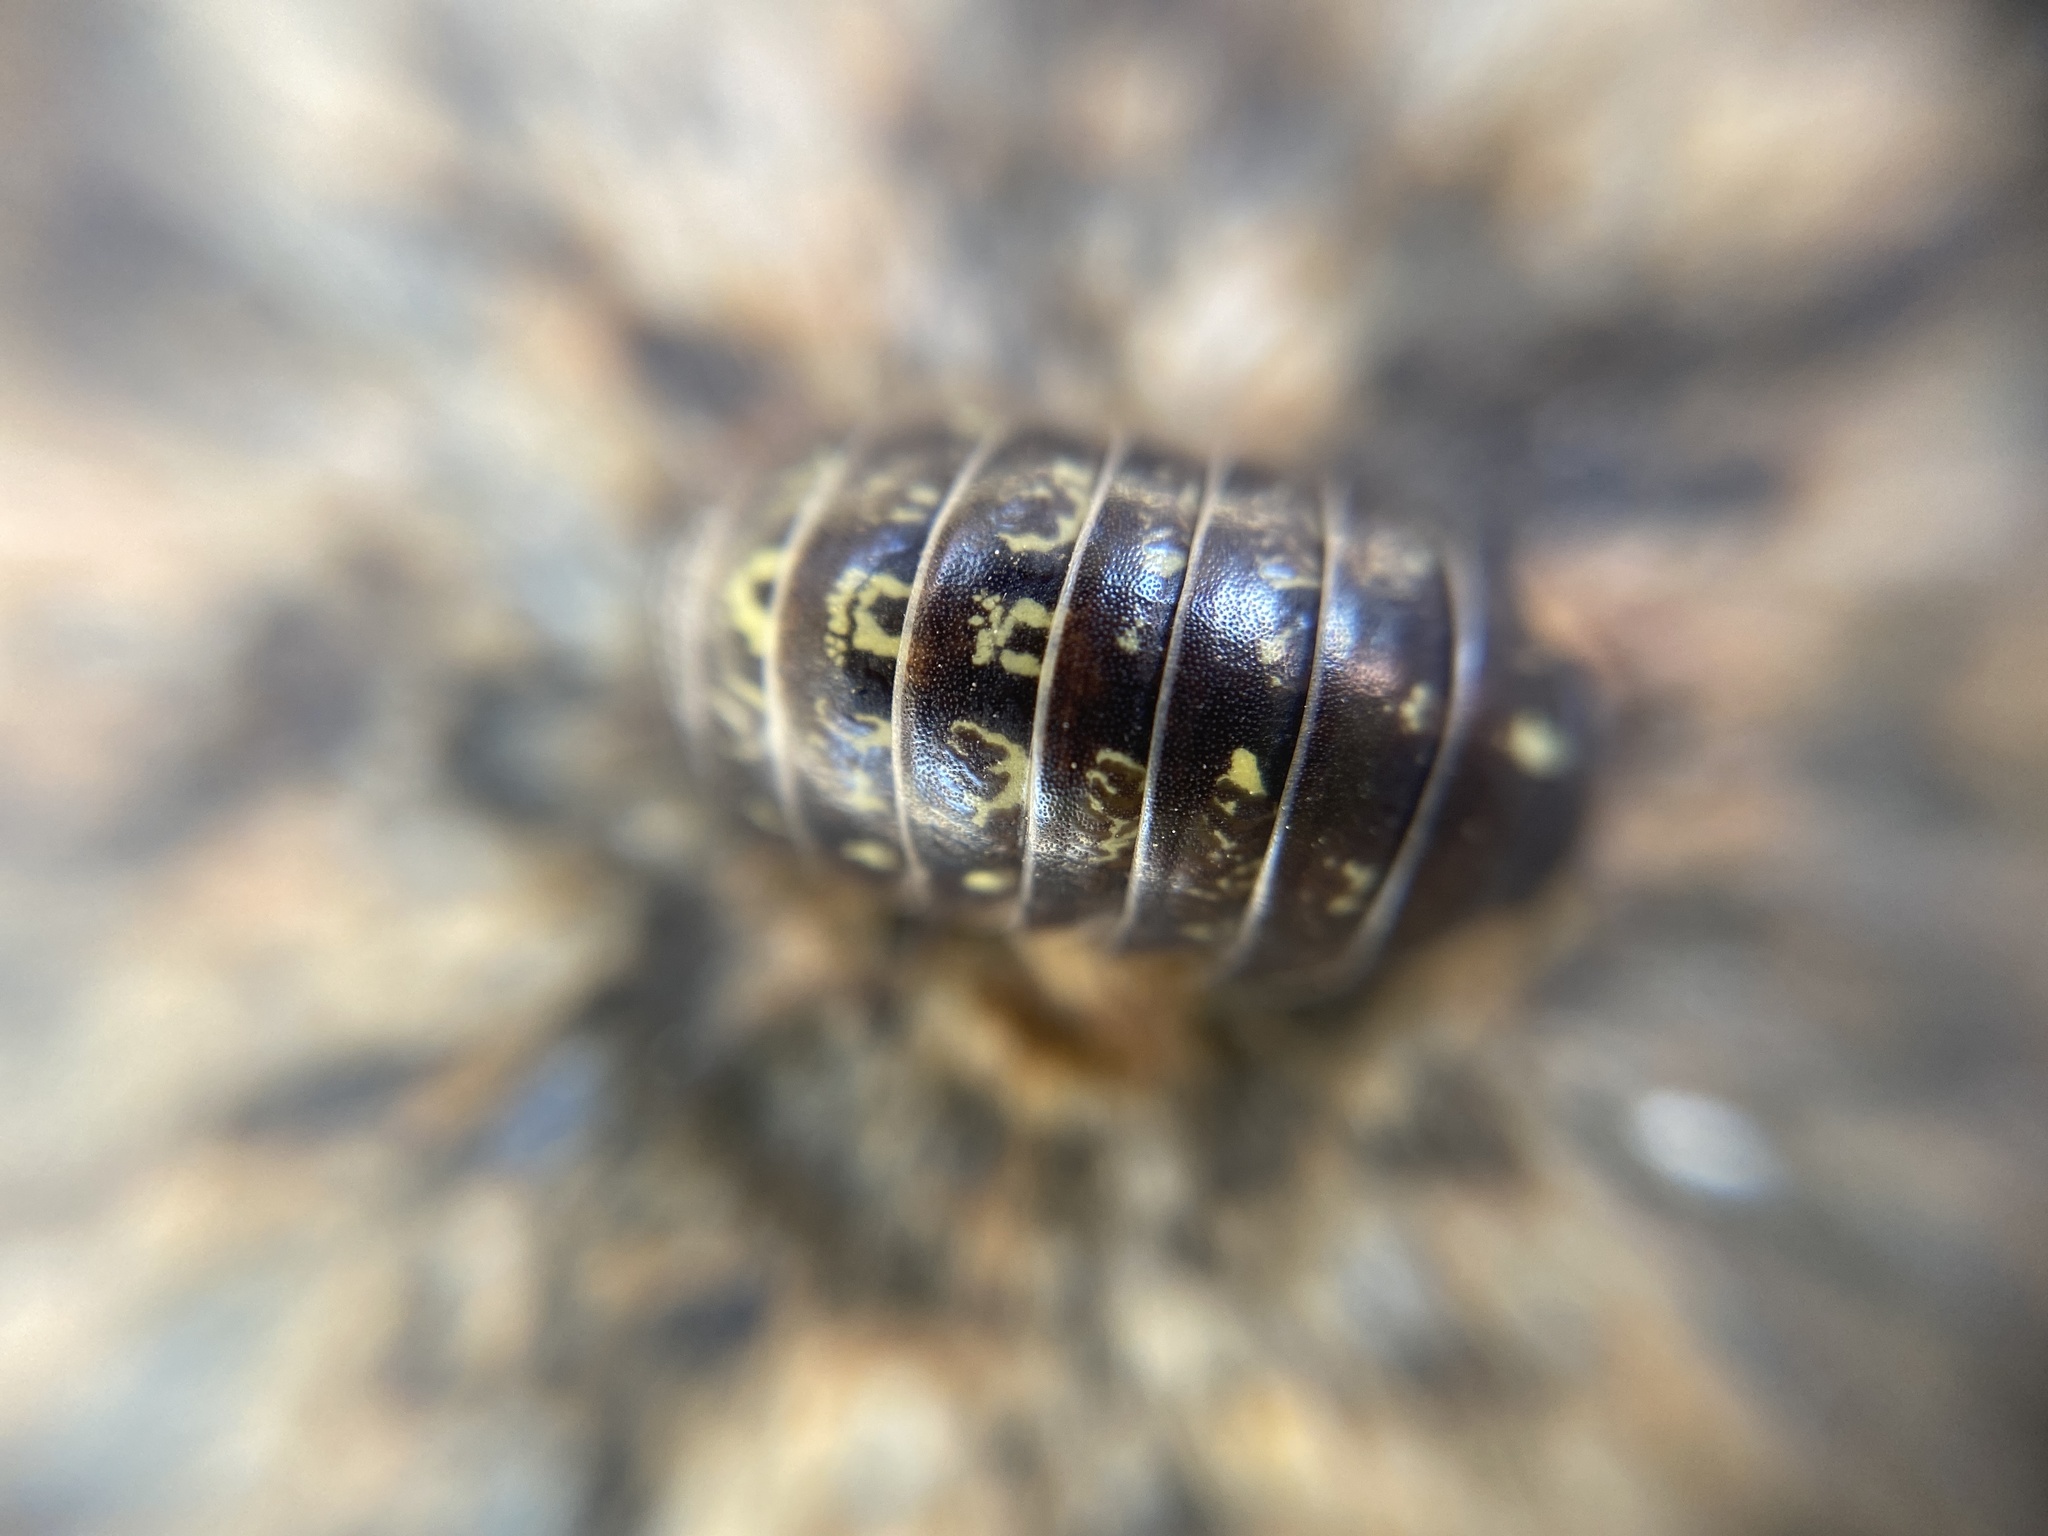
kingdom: Animalia
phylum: Arthropoda
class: Malacostraca
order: Isopoda
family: Armadillidiidae
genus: Armadillidium
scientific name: Armadillidium vulgare
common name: Common pill woodlouse
